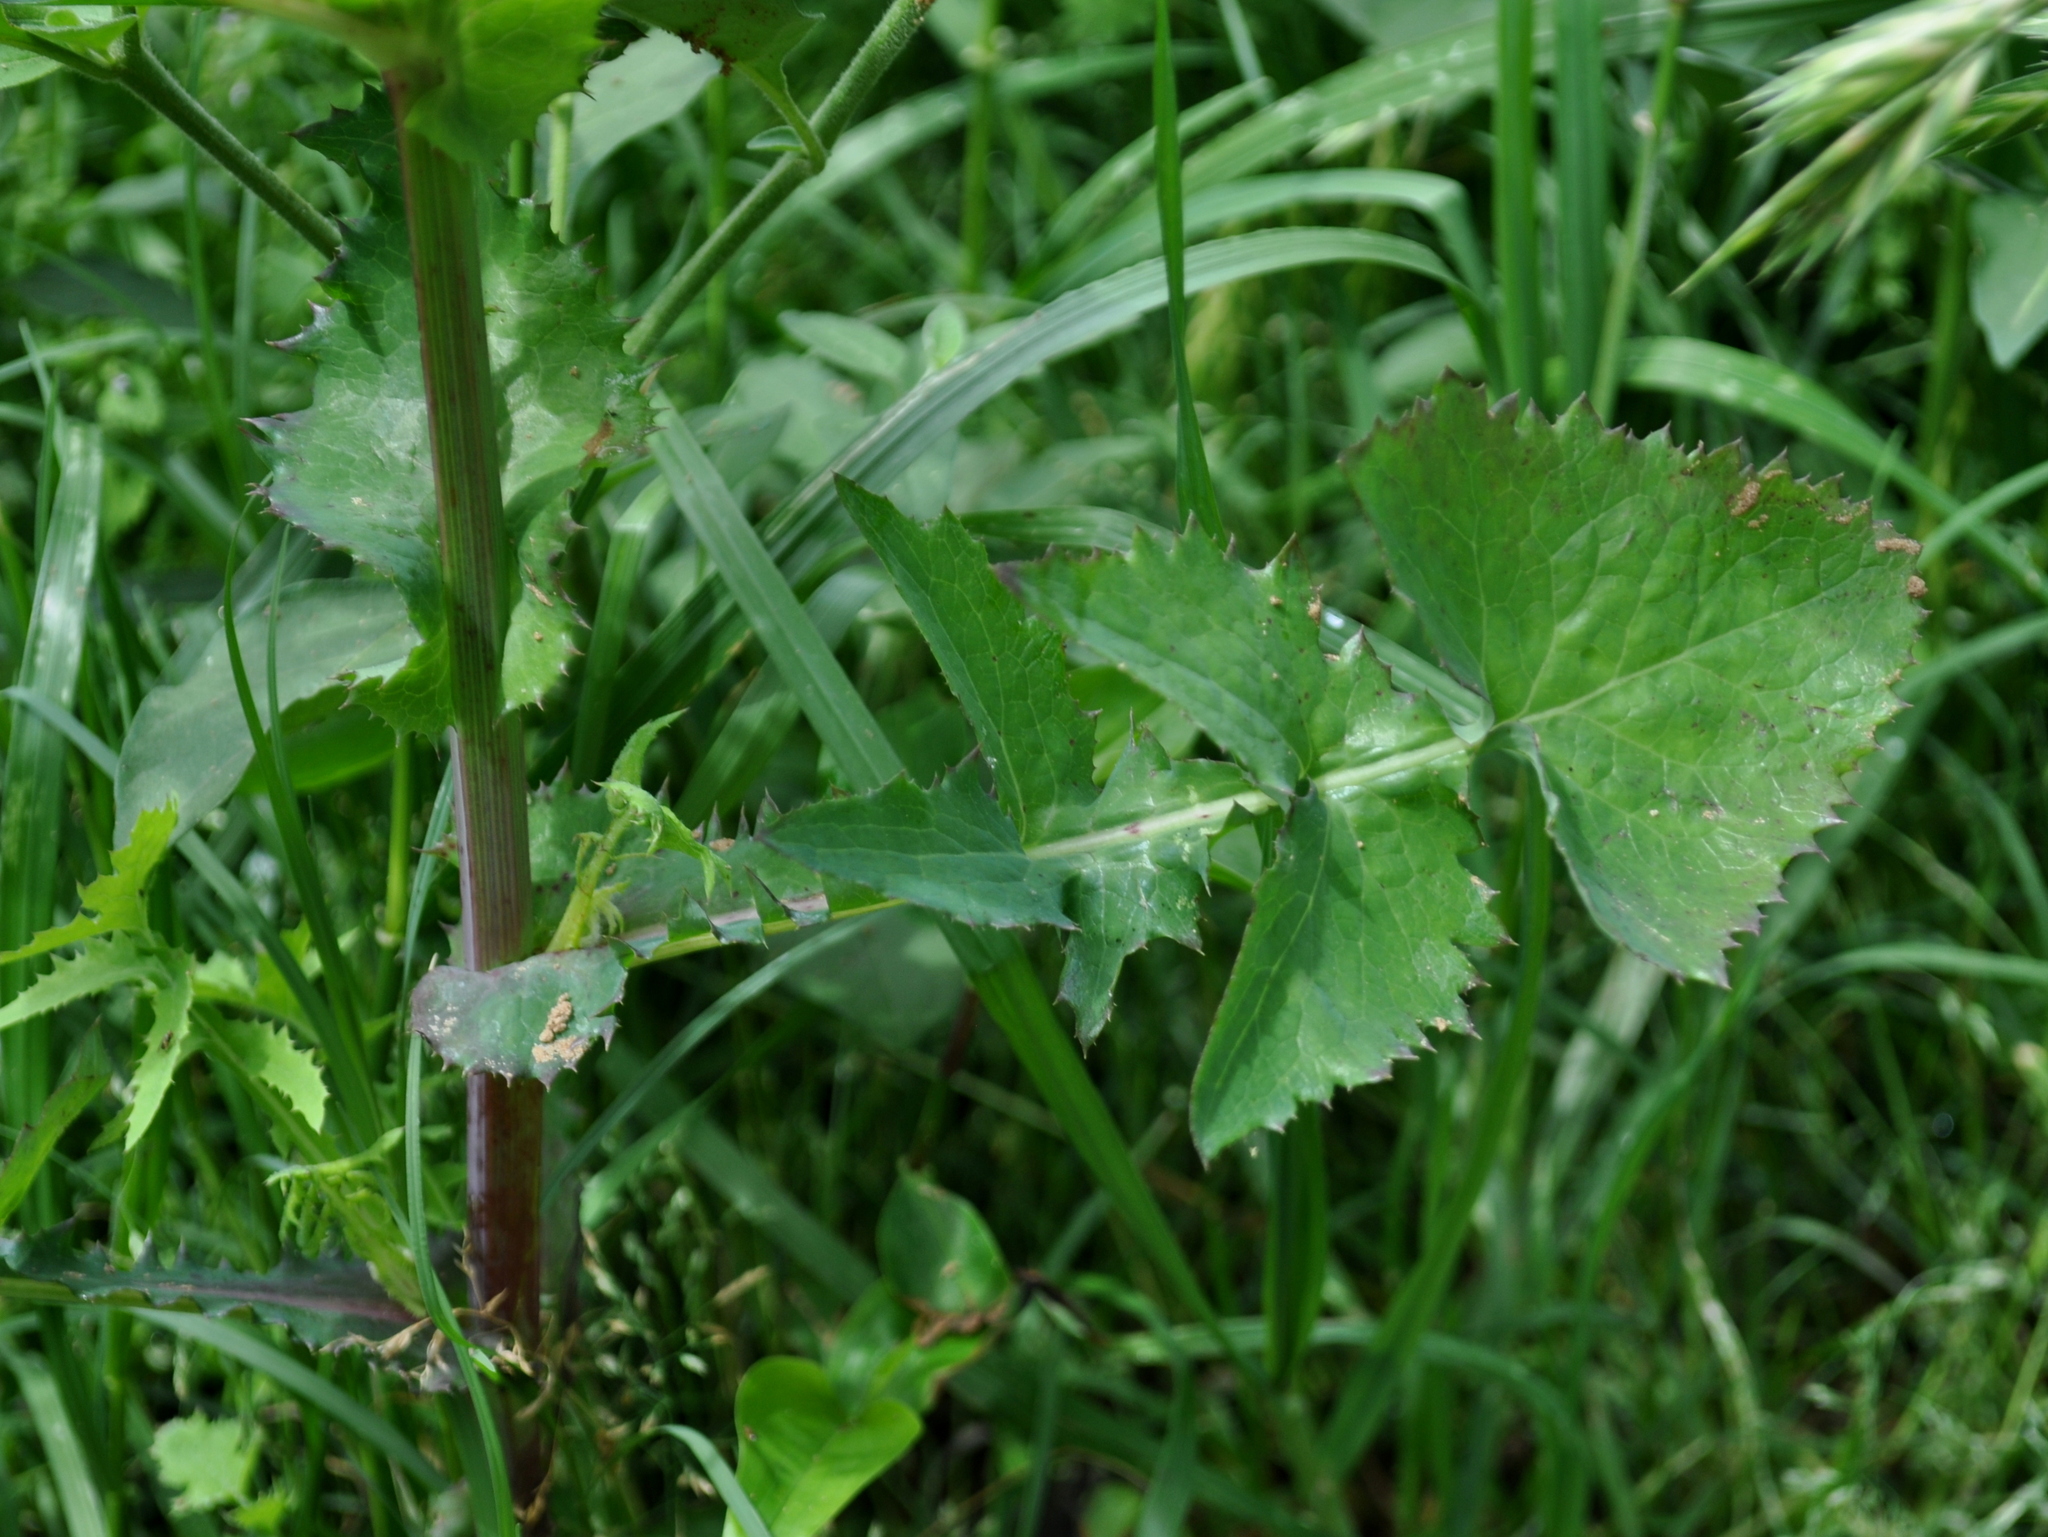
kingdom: Plantae
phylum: Tracheophyta
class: Magnoliopsida
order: Asterales
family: Asteraceae
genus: Sonchus
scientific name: Sonchus oleraceus
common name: Common sowthistle
